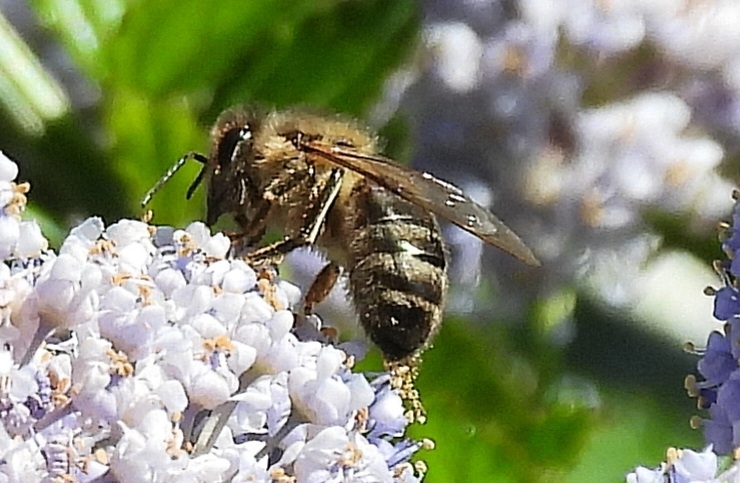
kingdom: Animalia
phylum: Arthropoda
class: Insecta
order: Hymenoptera
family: Apidae
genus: Apis
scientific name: Apis mellifera
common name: Honey bee
